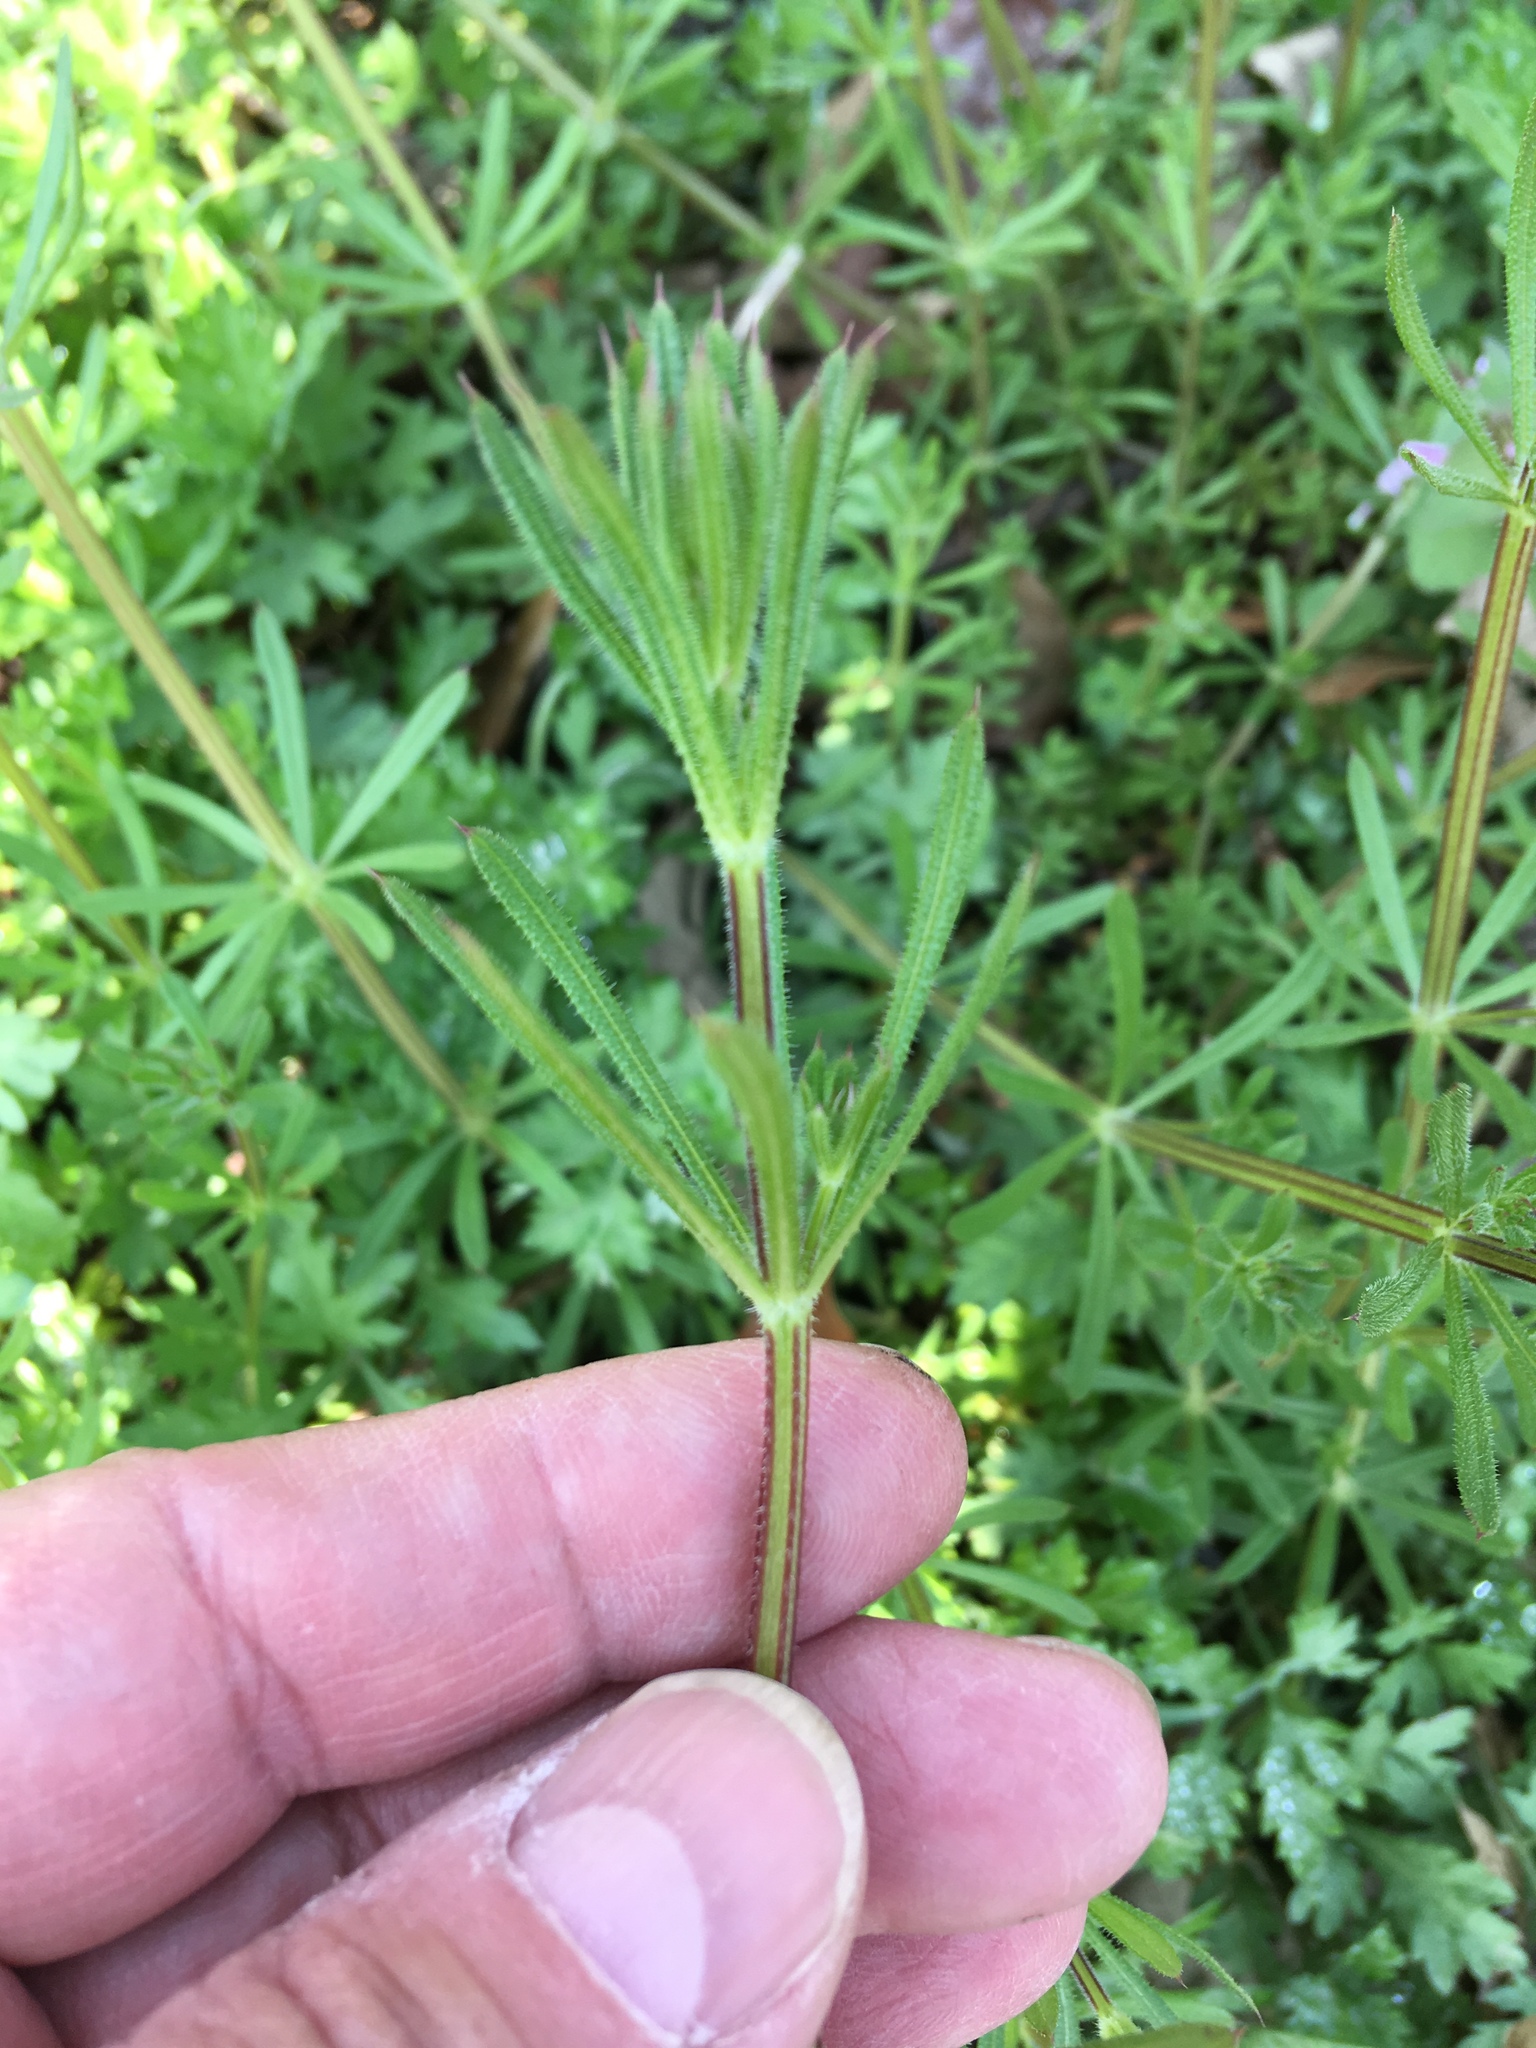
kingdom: Plantae
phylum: Tracheophyta
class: Magnoliopsida
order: Gentianales
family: Rubiaceae
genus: Galium
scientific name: Galium aparine
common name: Cleavers
